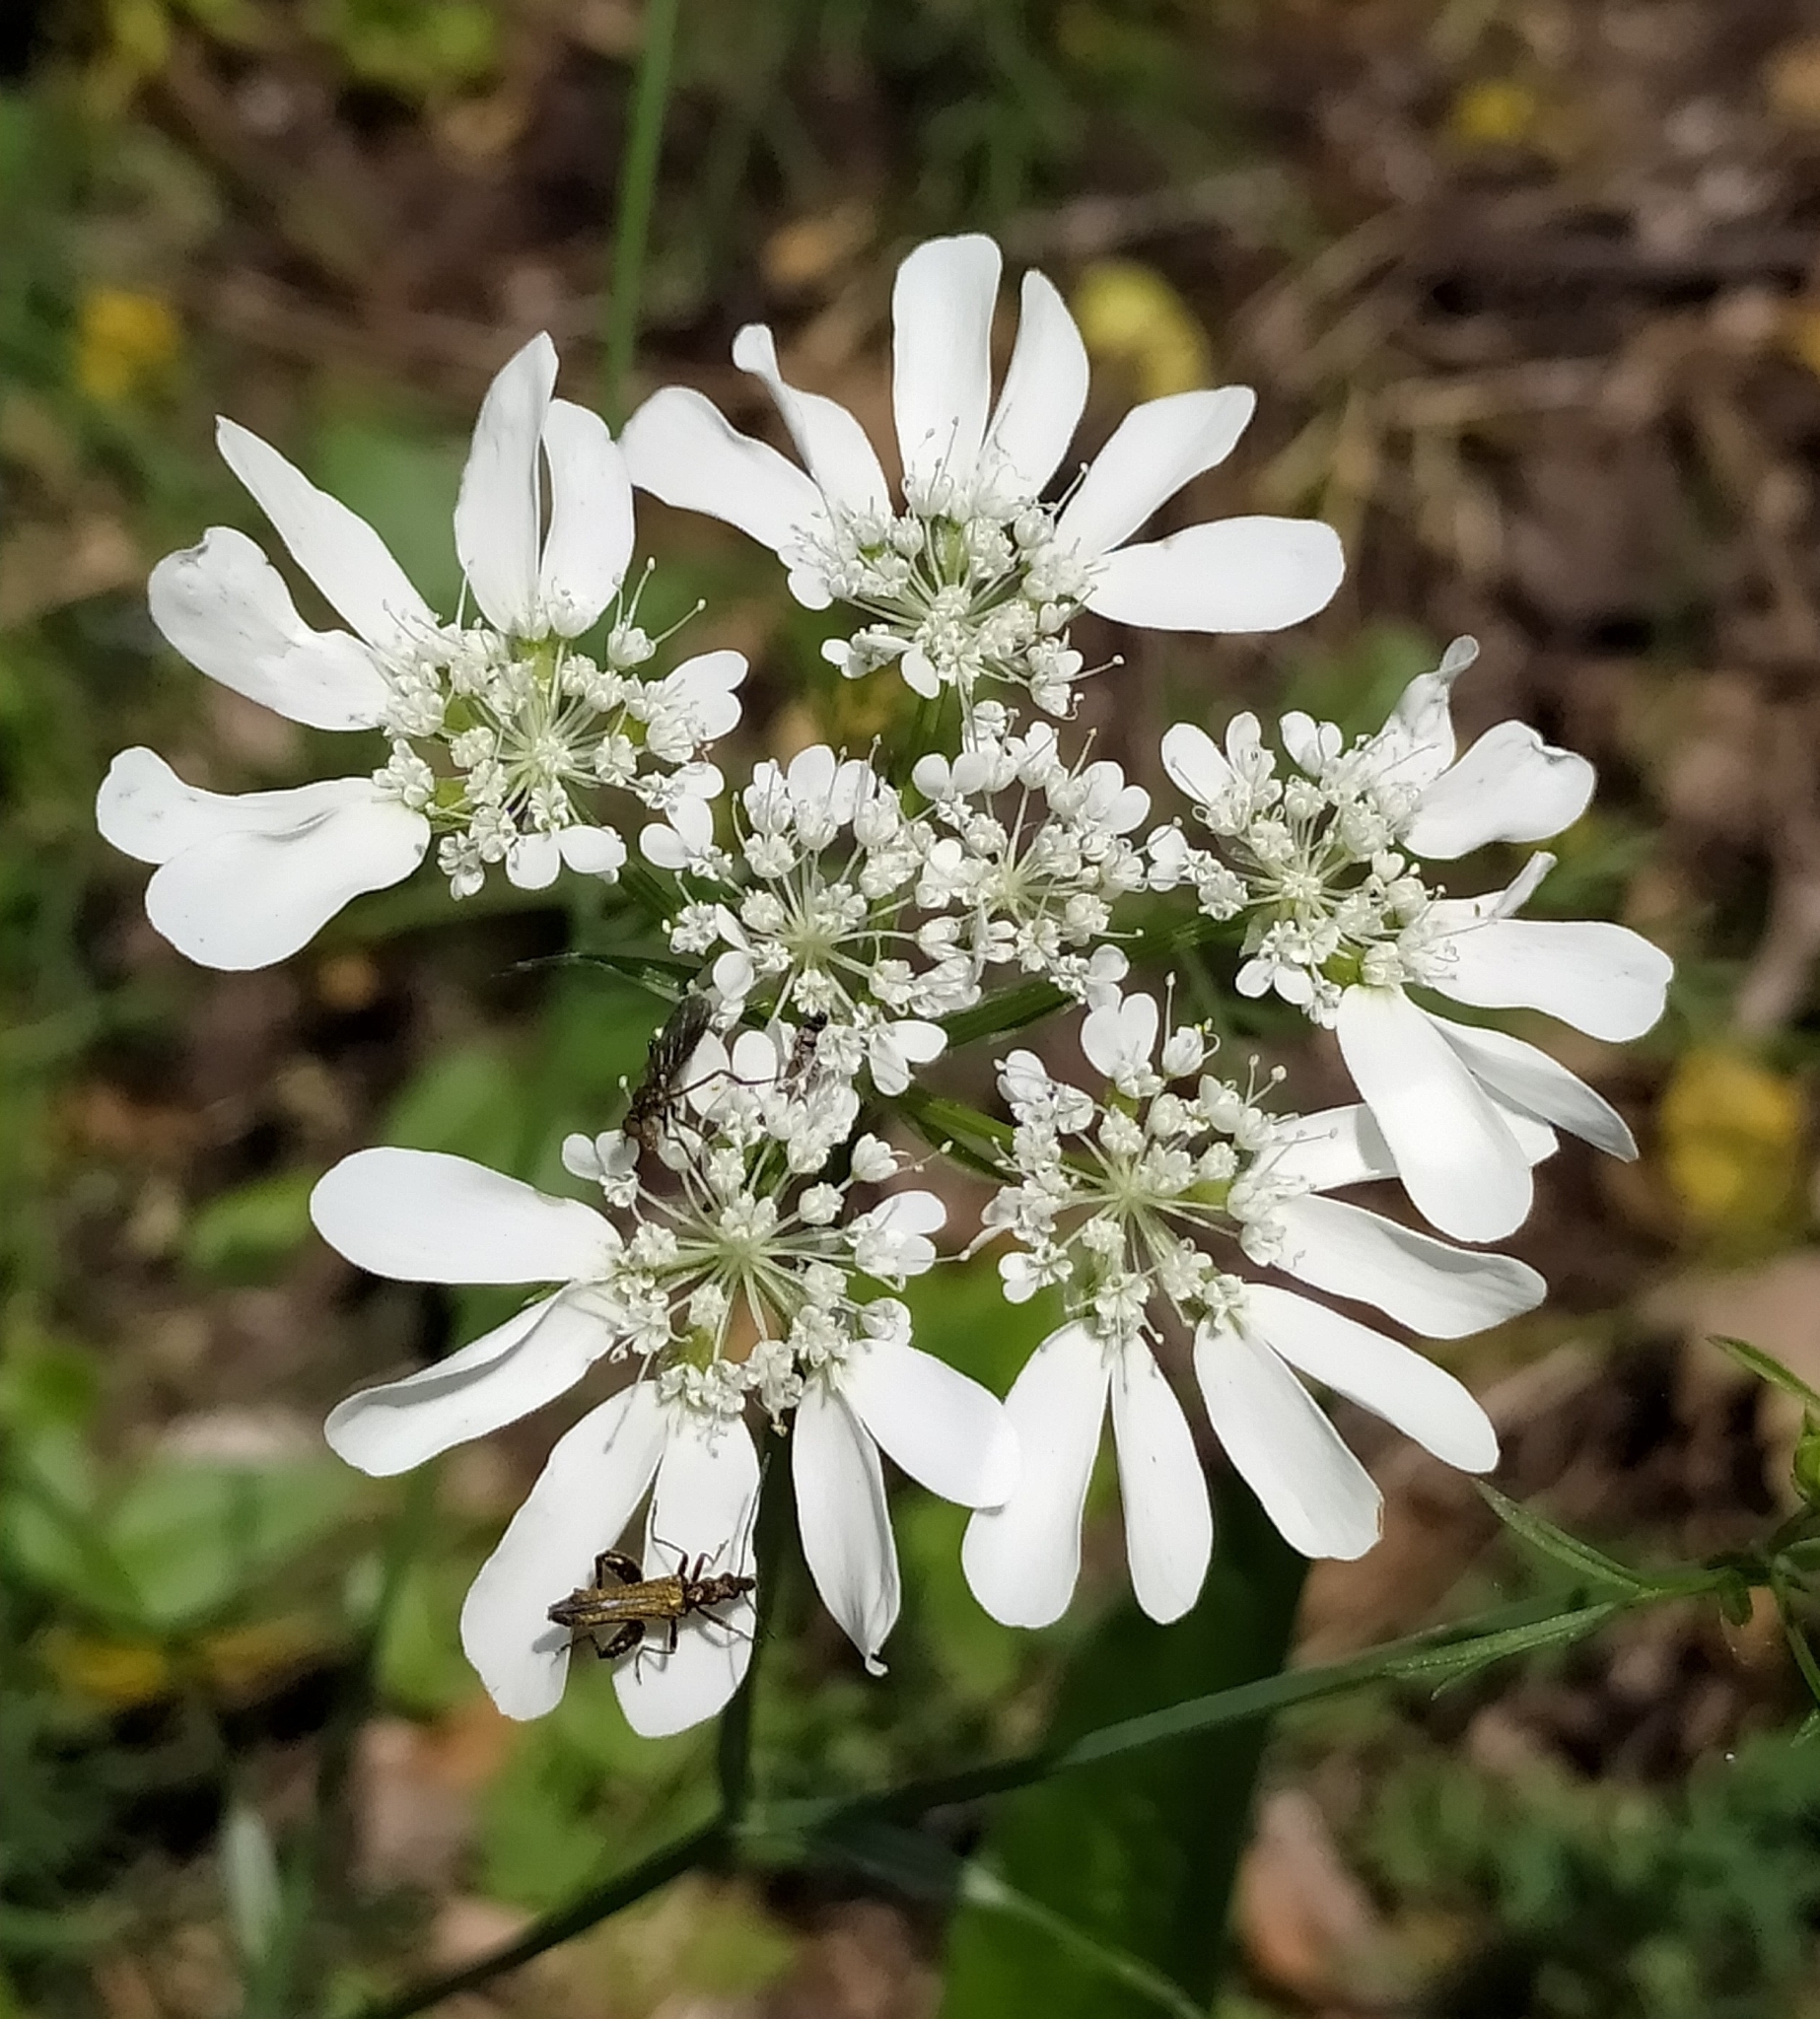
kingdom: Plantae
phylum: Tracheophyta
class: Magnoliopsida
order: Apiales
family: Apiaceae
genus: Orlaya
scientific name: Orlaya grandiflora
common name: White lace flower
